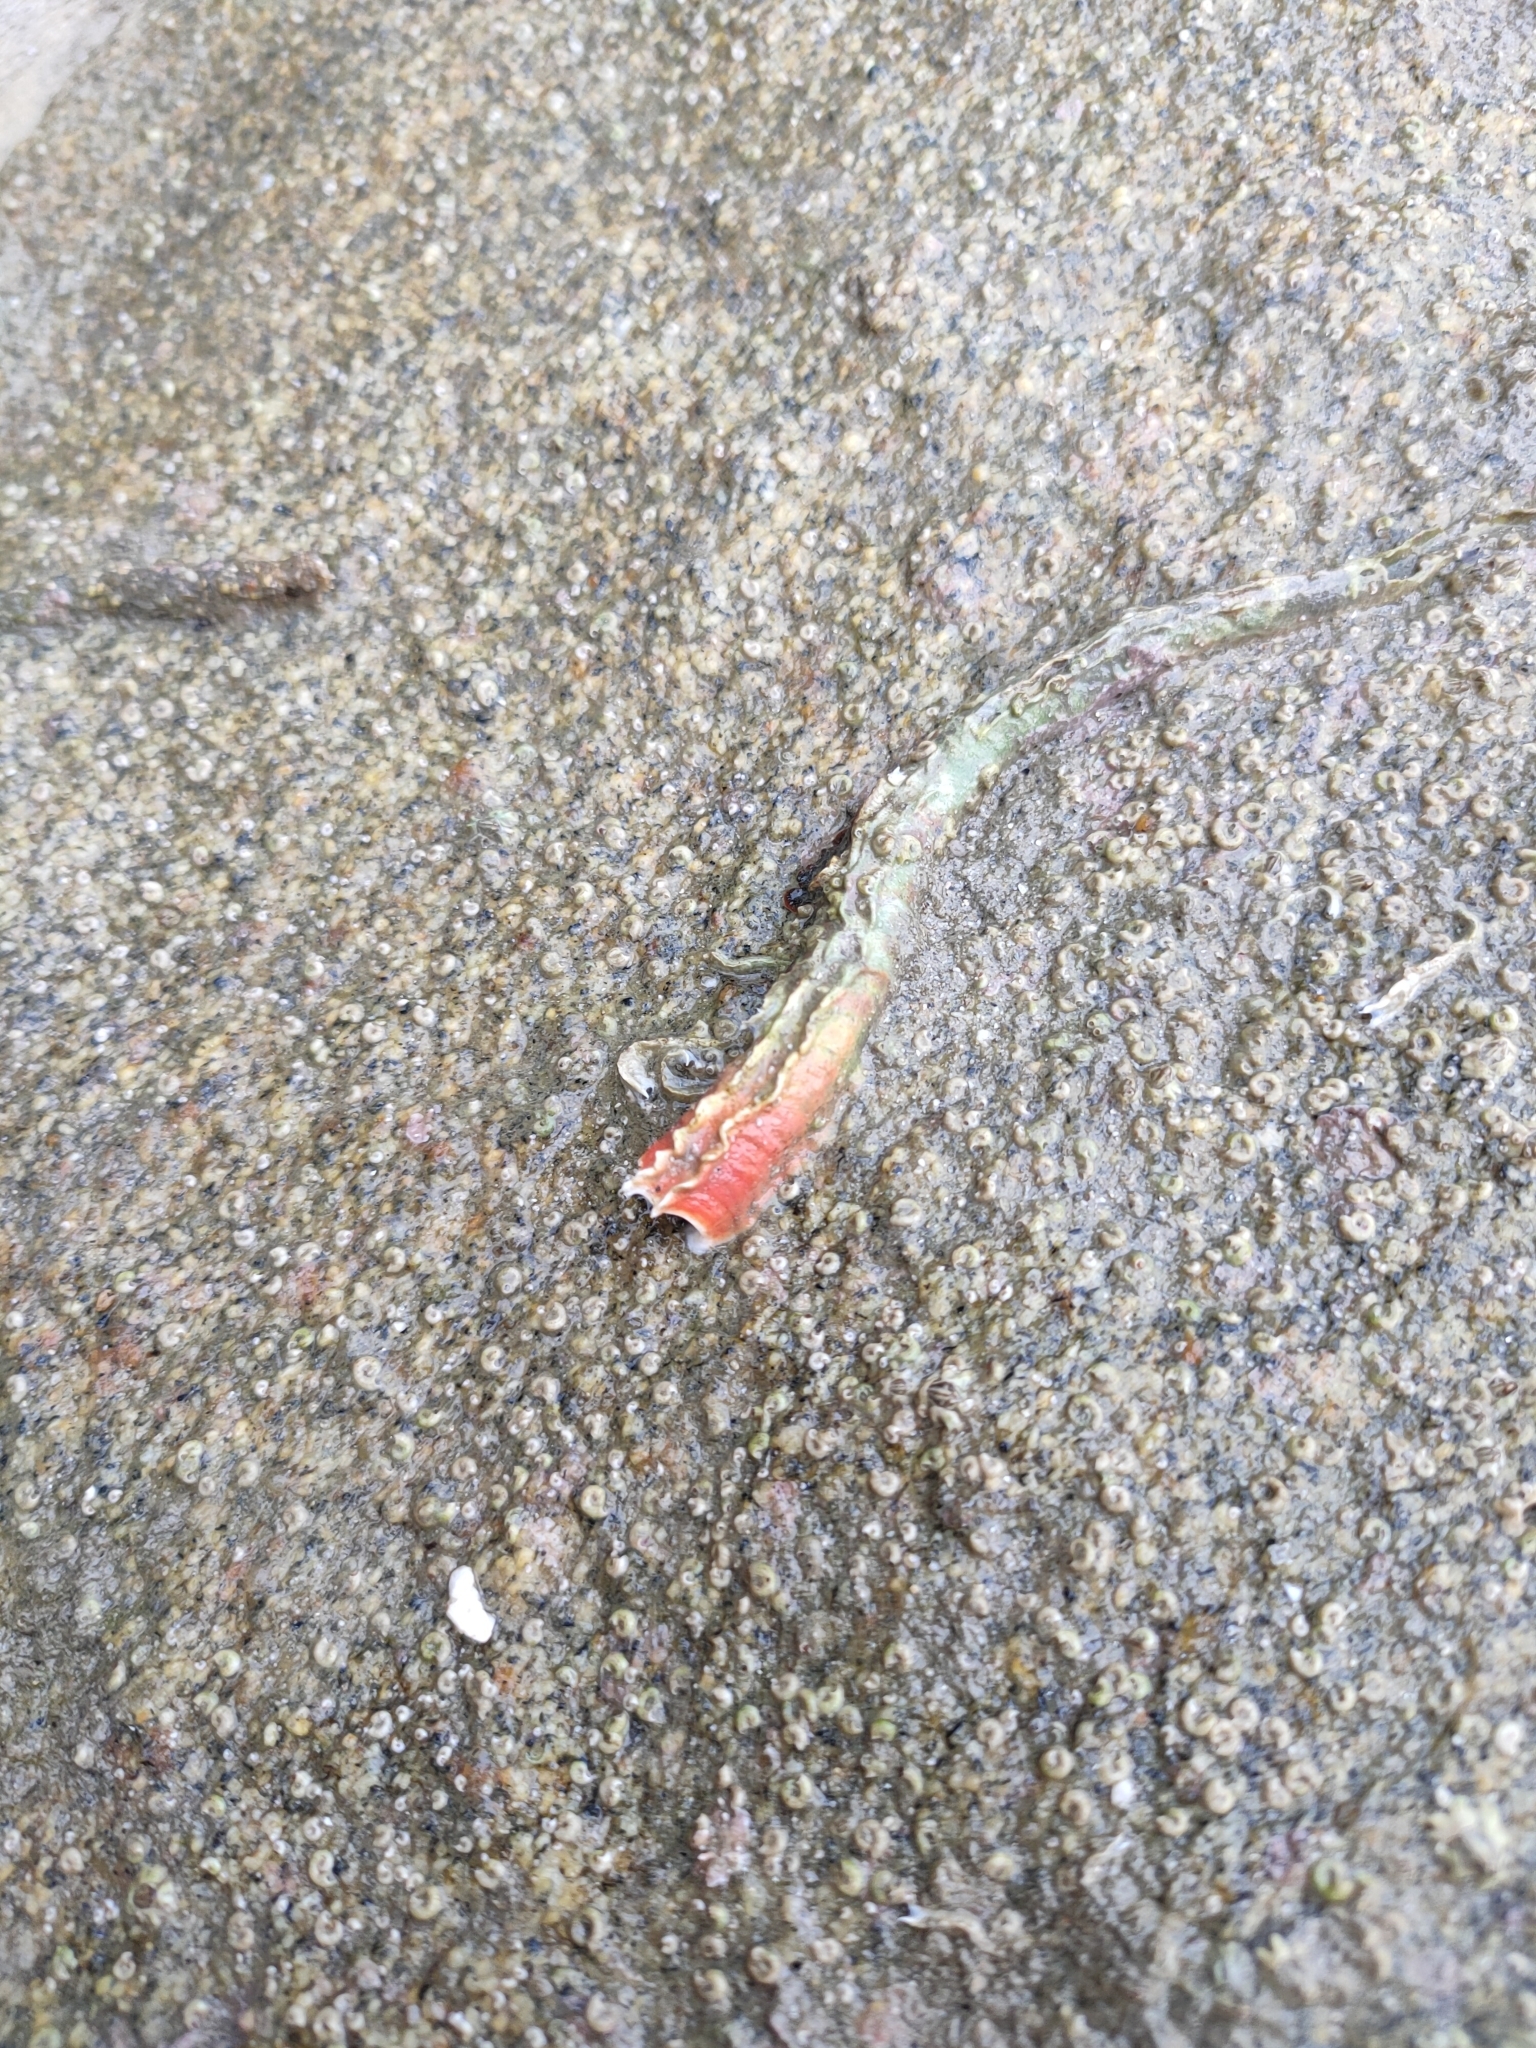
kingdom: Animalia
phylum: Annelida
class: Polychaeta
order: Sabellida
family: Serpulidae
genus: Galeolaria
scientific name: Galeolaria hystrix
